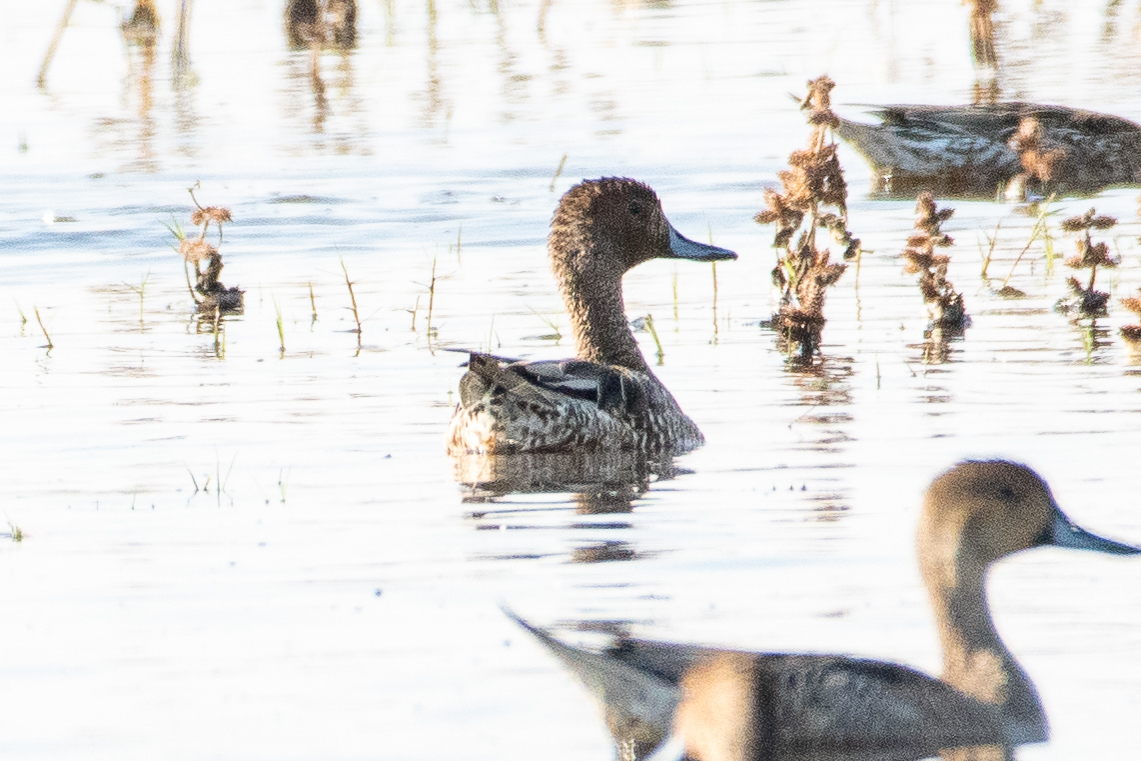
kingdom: Animalia
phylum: Chordata
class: Aves
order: Anseriformes
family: Anatidae
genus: Anas
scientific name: Anas acuta
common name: Northern pintail
